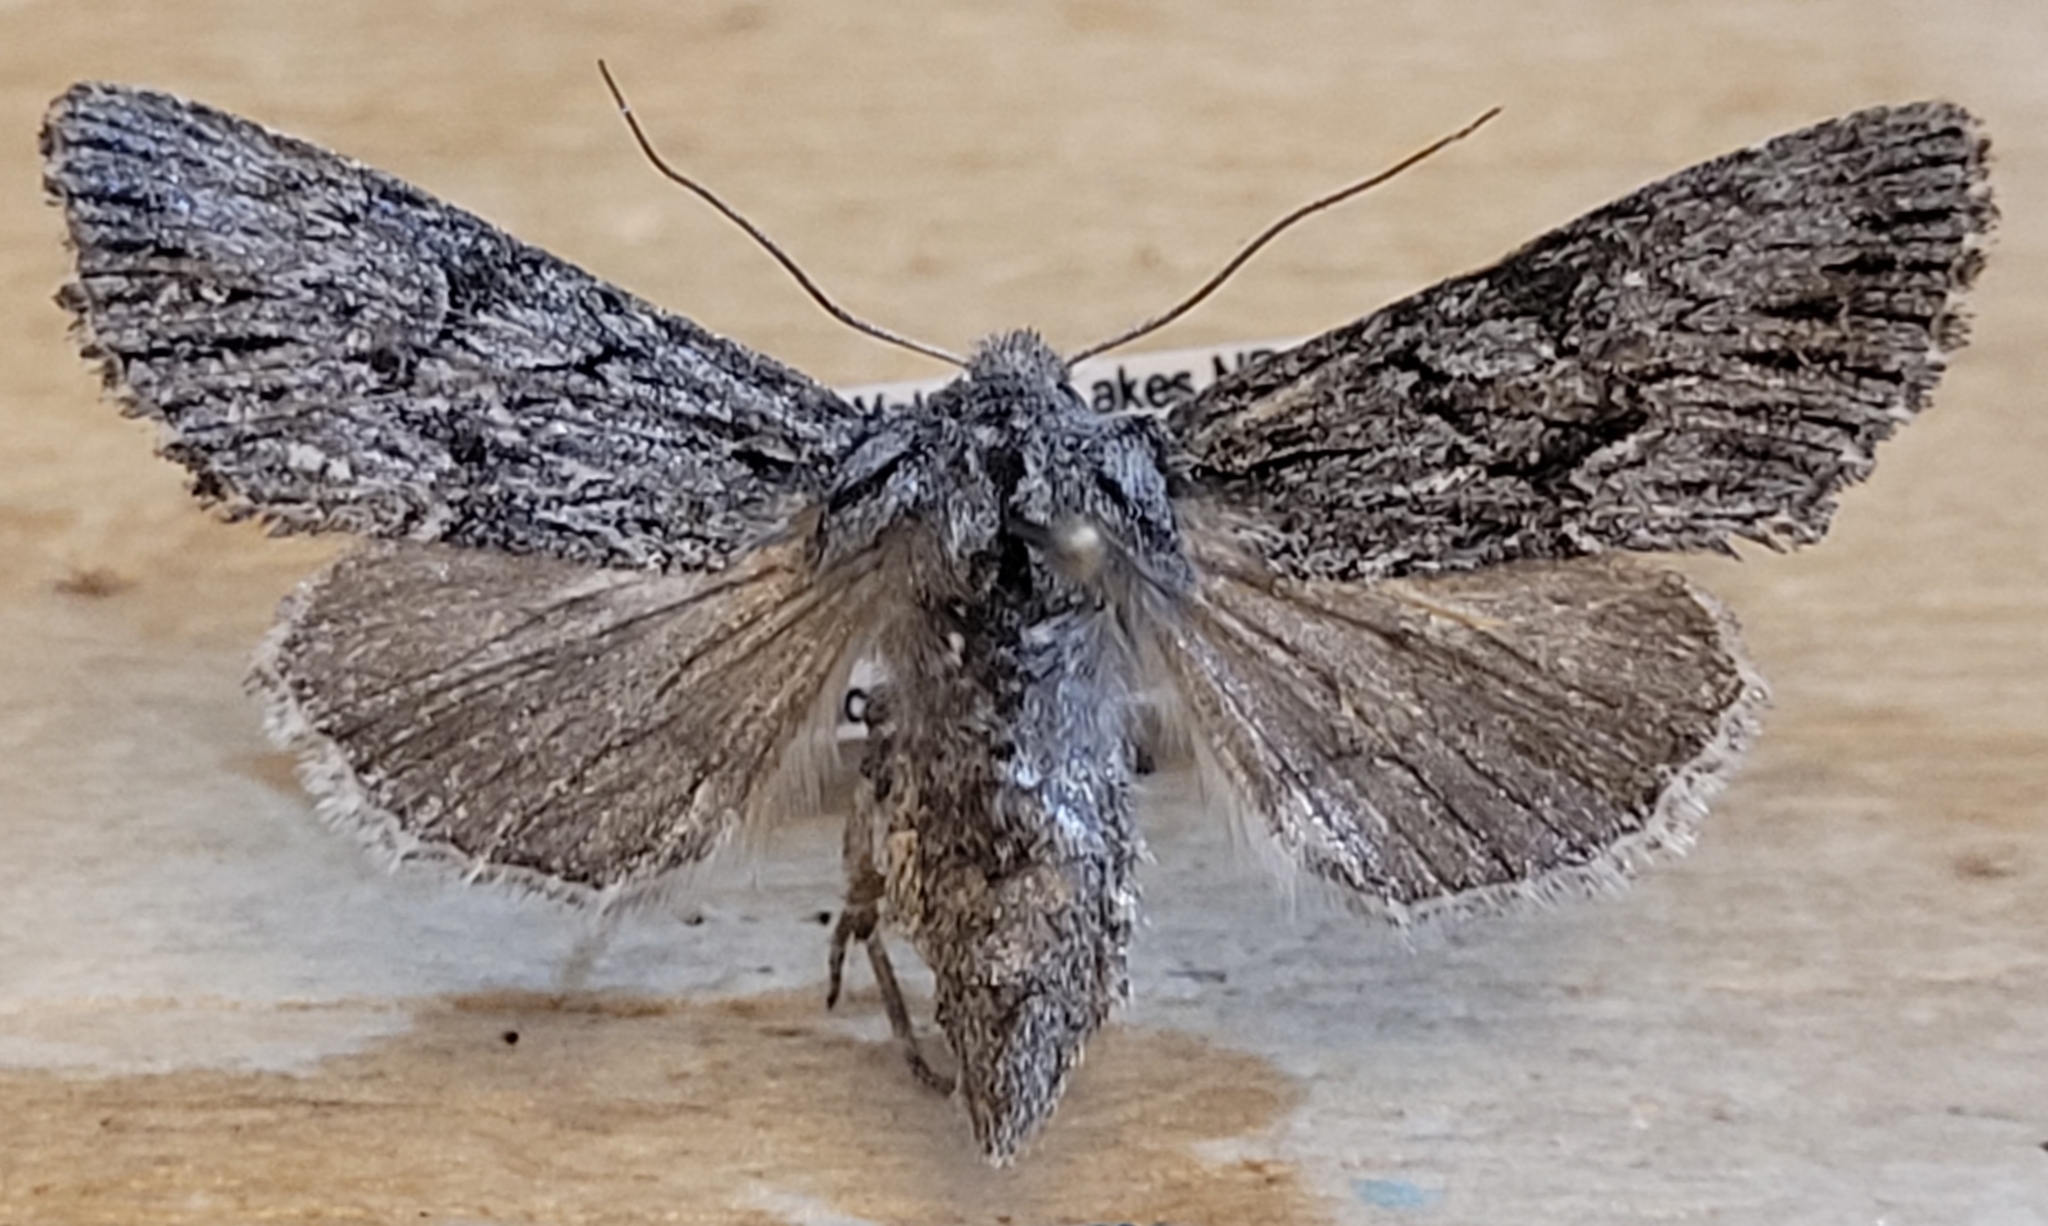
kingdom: Animalia
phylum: Arthropoda
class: Insecta
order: Lepidoptera
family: Noctuidae
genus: Fishia
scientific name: Fishia yosemitae
